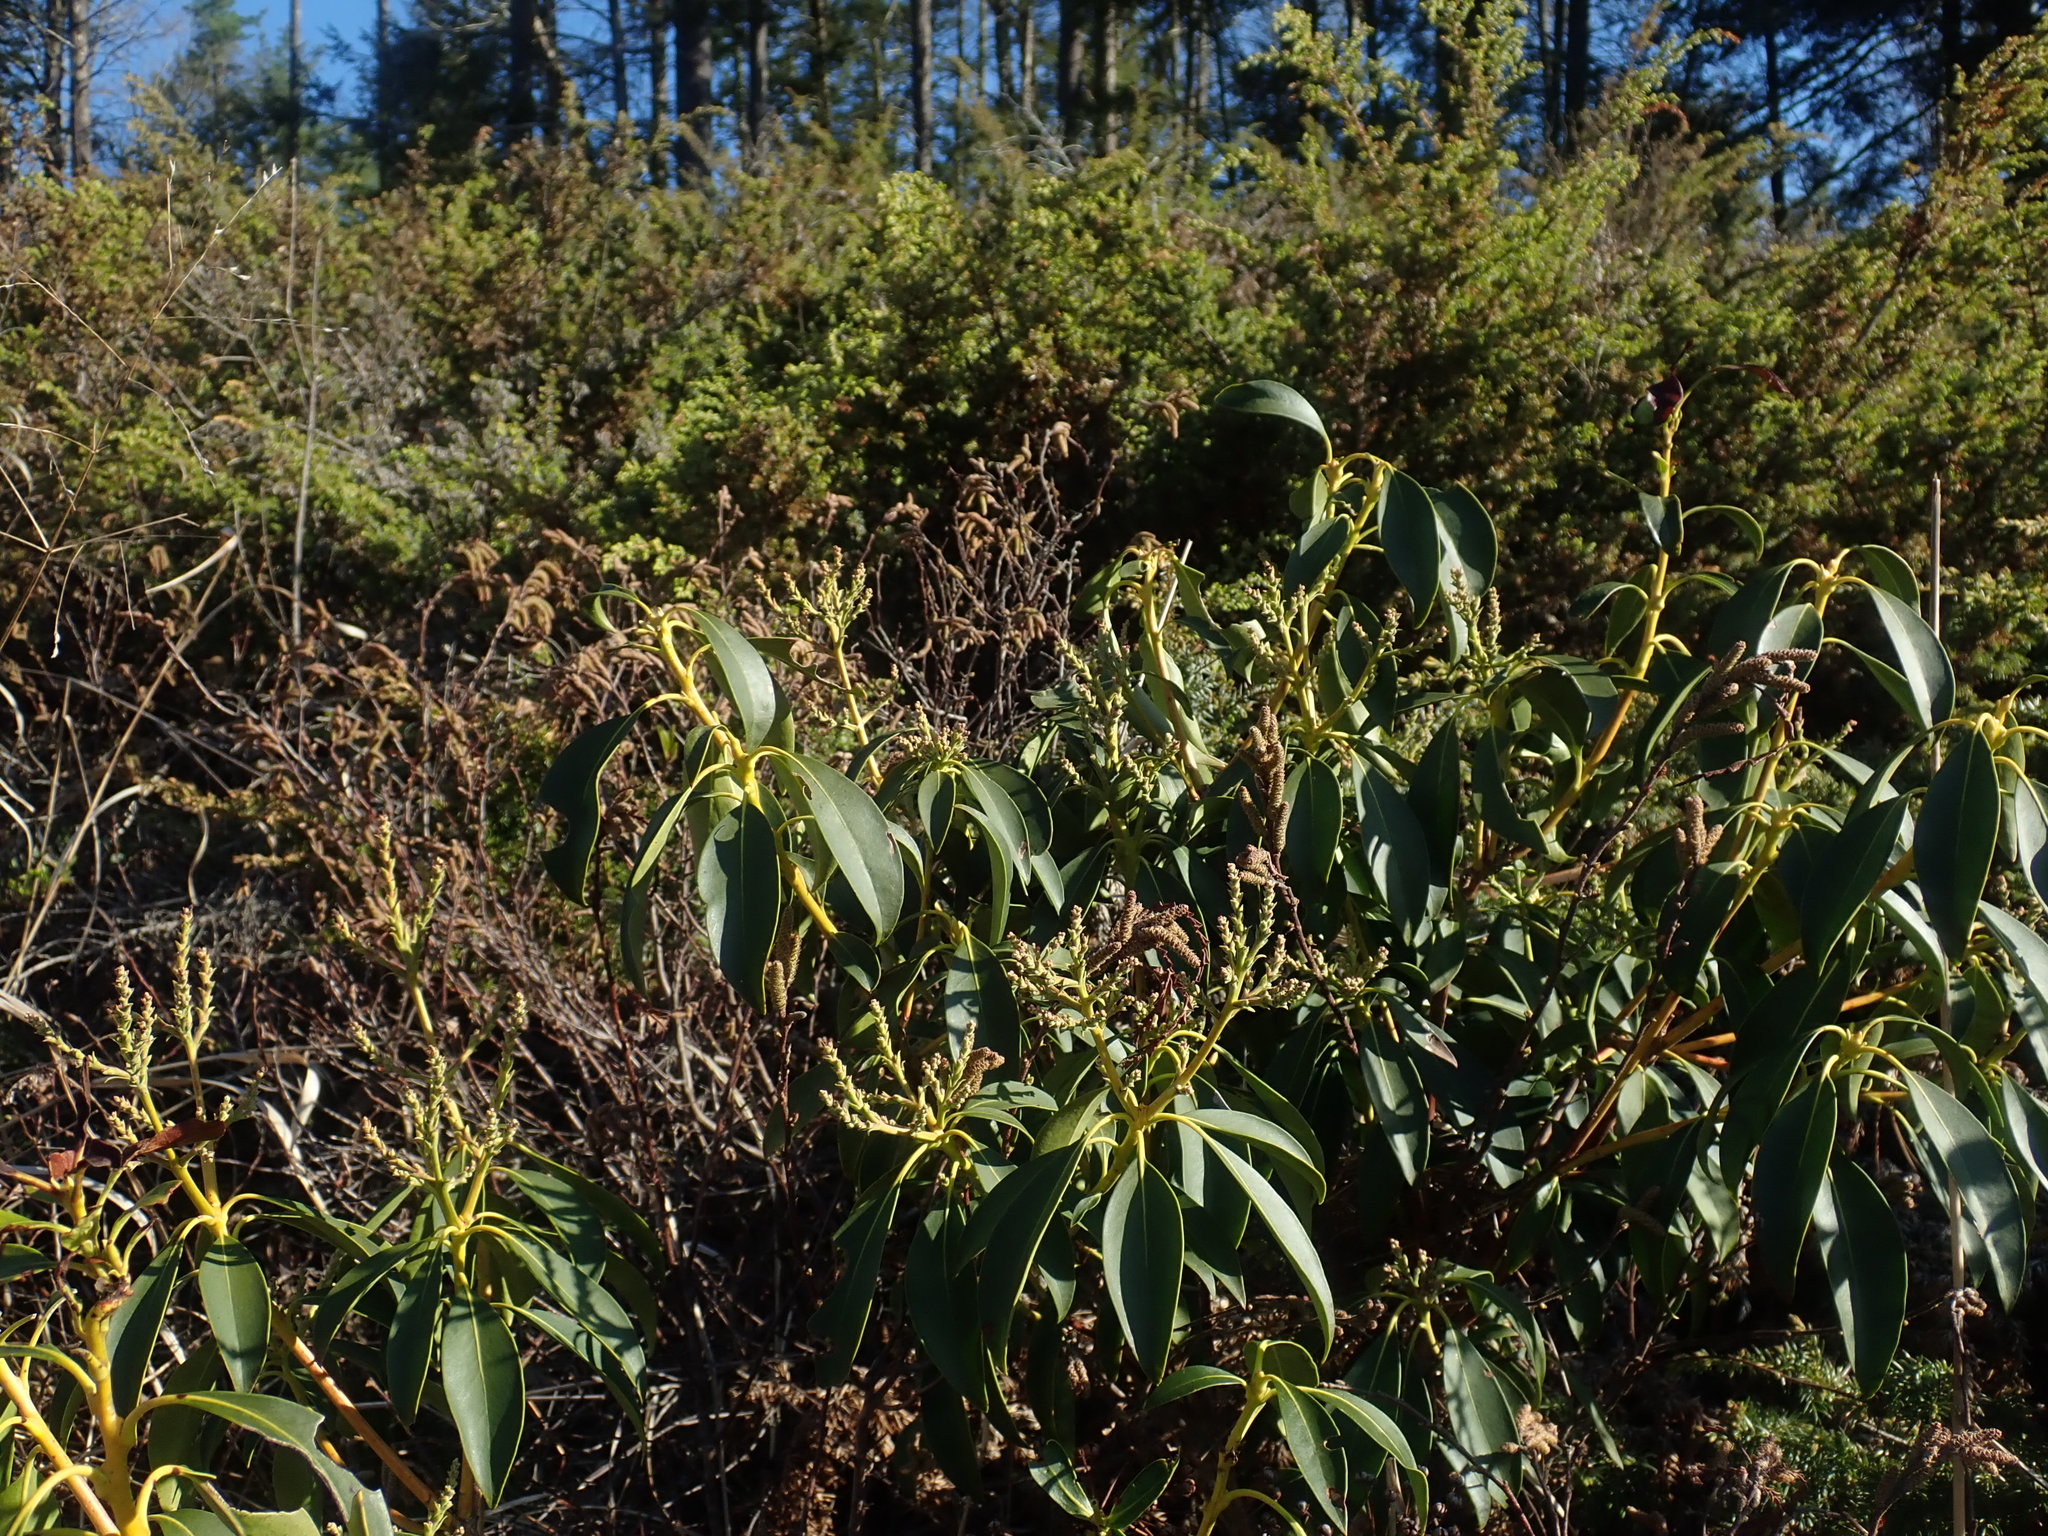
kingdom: Plantae
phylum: Tracheophyta
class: Magnoliopsida
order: Ericales
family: Ericaceae
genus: Kalmia
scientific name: Kalmia latifolia
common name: Mountain-laurel
